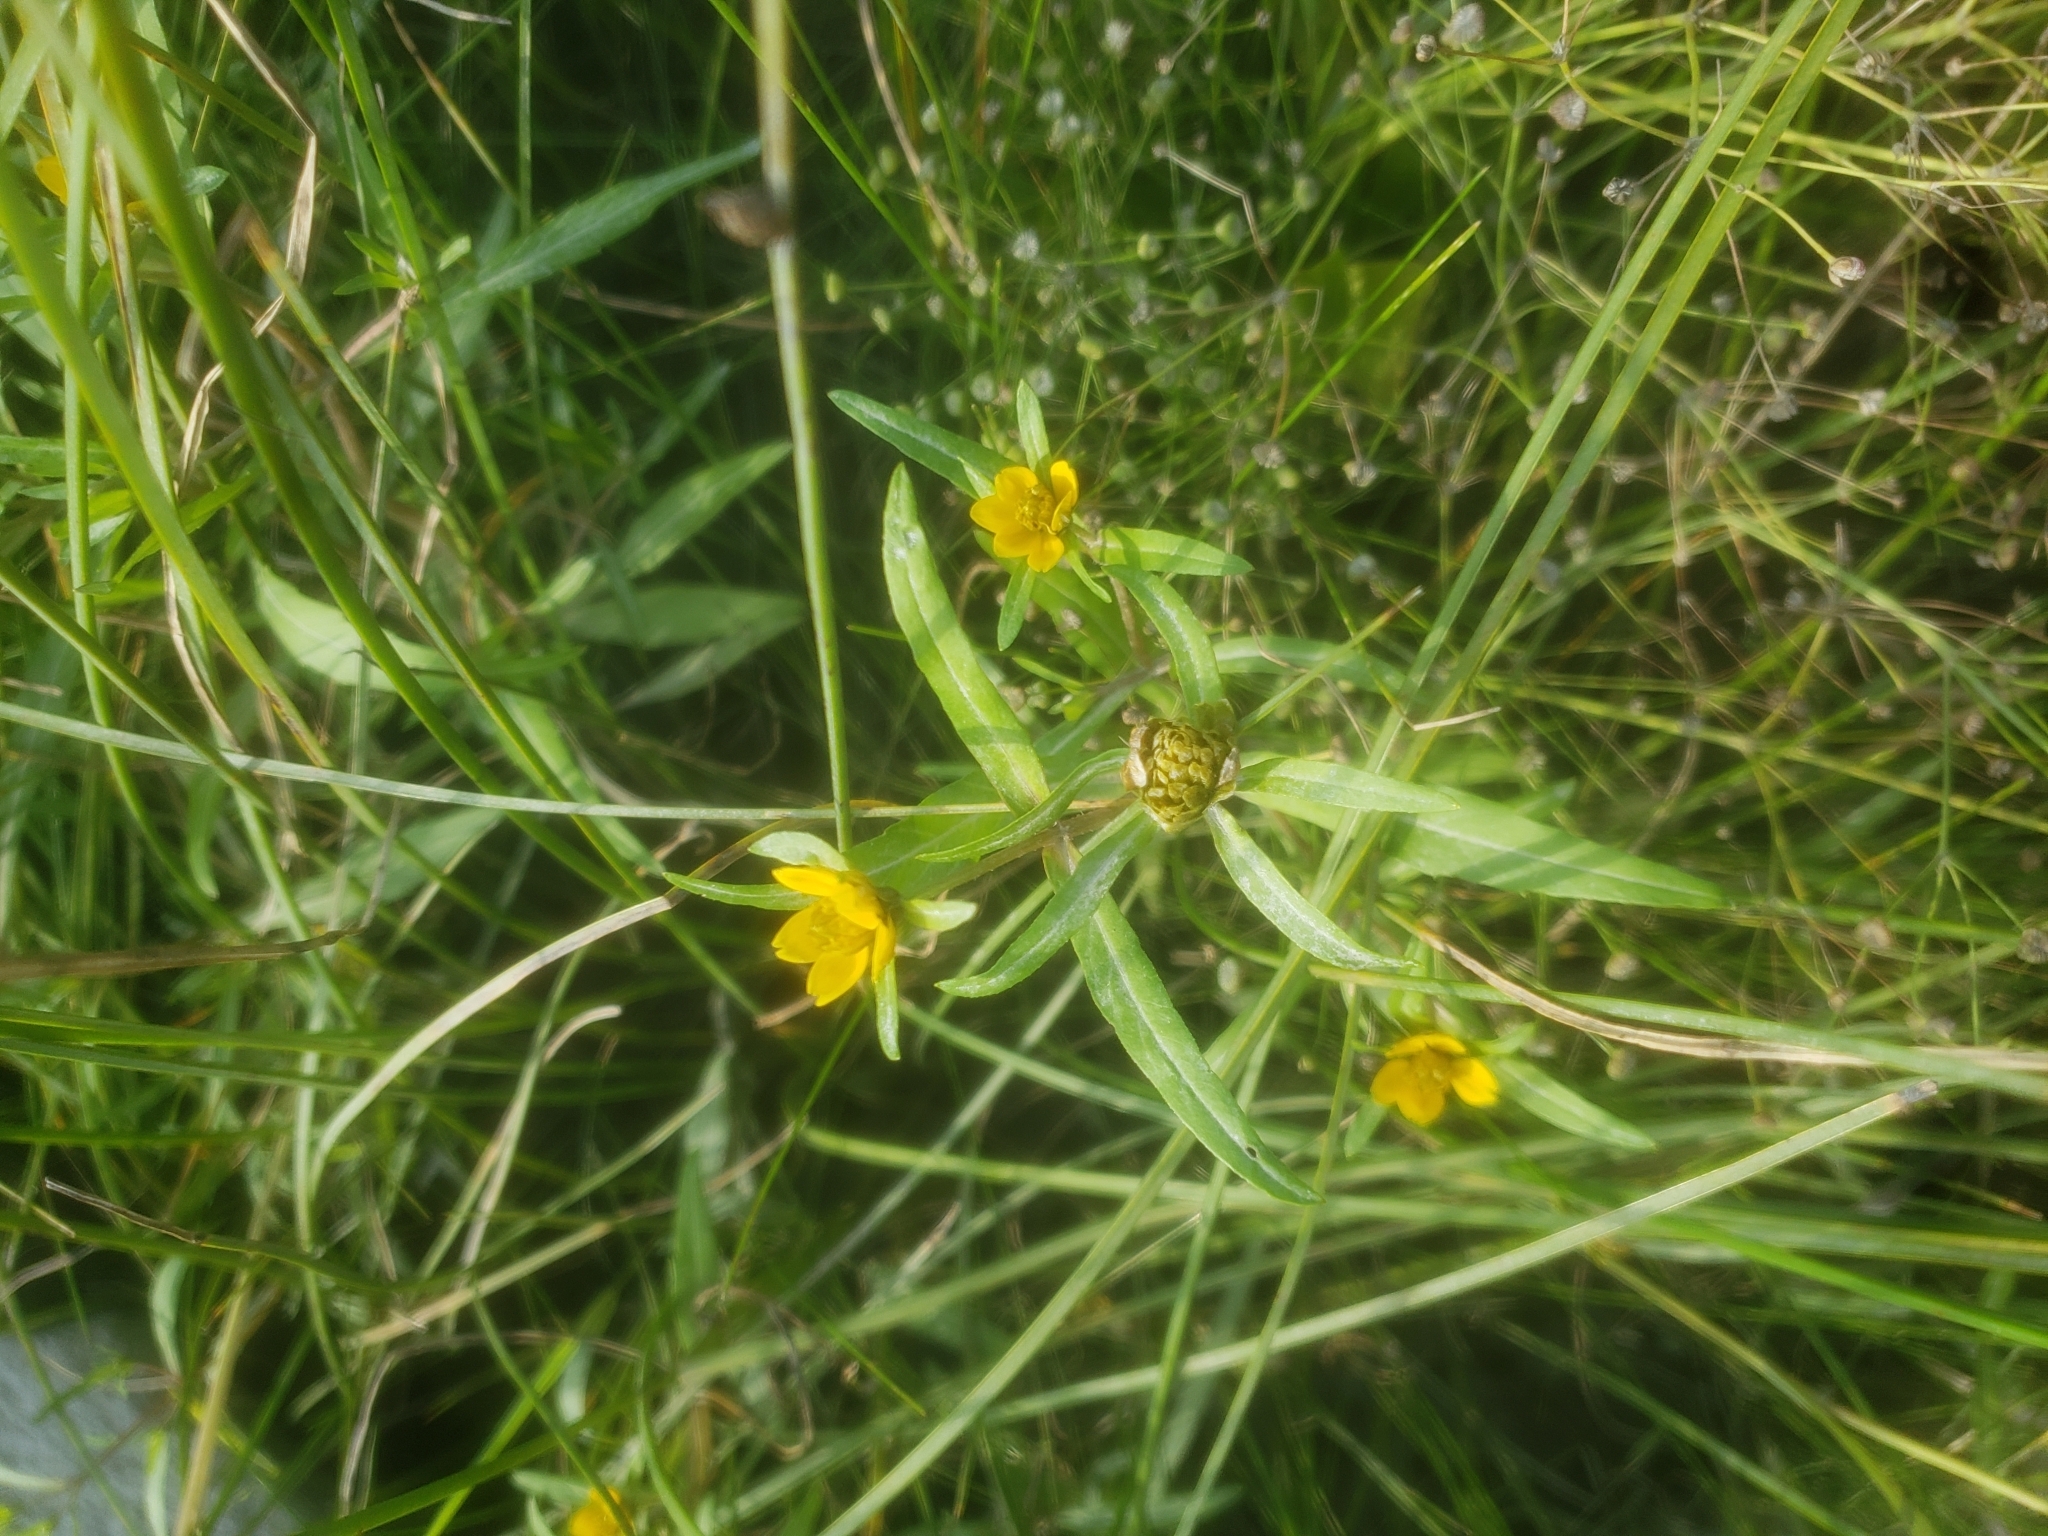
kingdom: Plantae
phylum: Tracheophyta
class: Magnoliopsida
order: Asterales
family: Asteraceae
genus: Bidens
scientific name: Bidens hyperborea
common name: Coastal beggarticks
